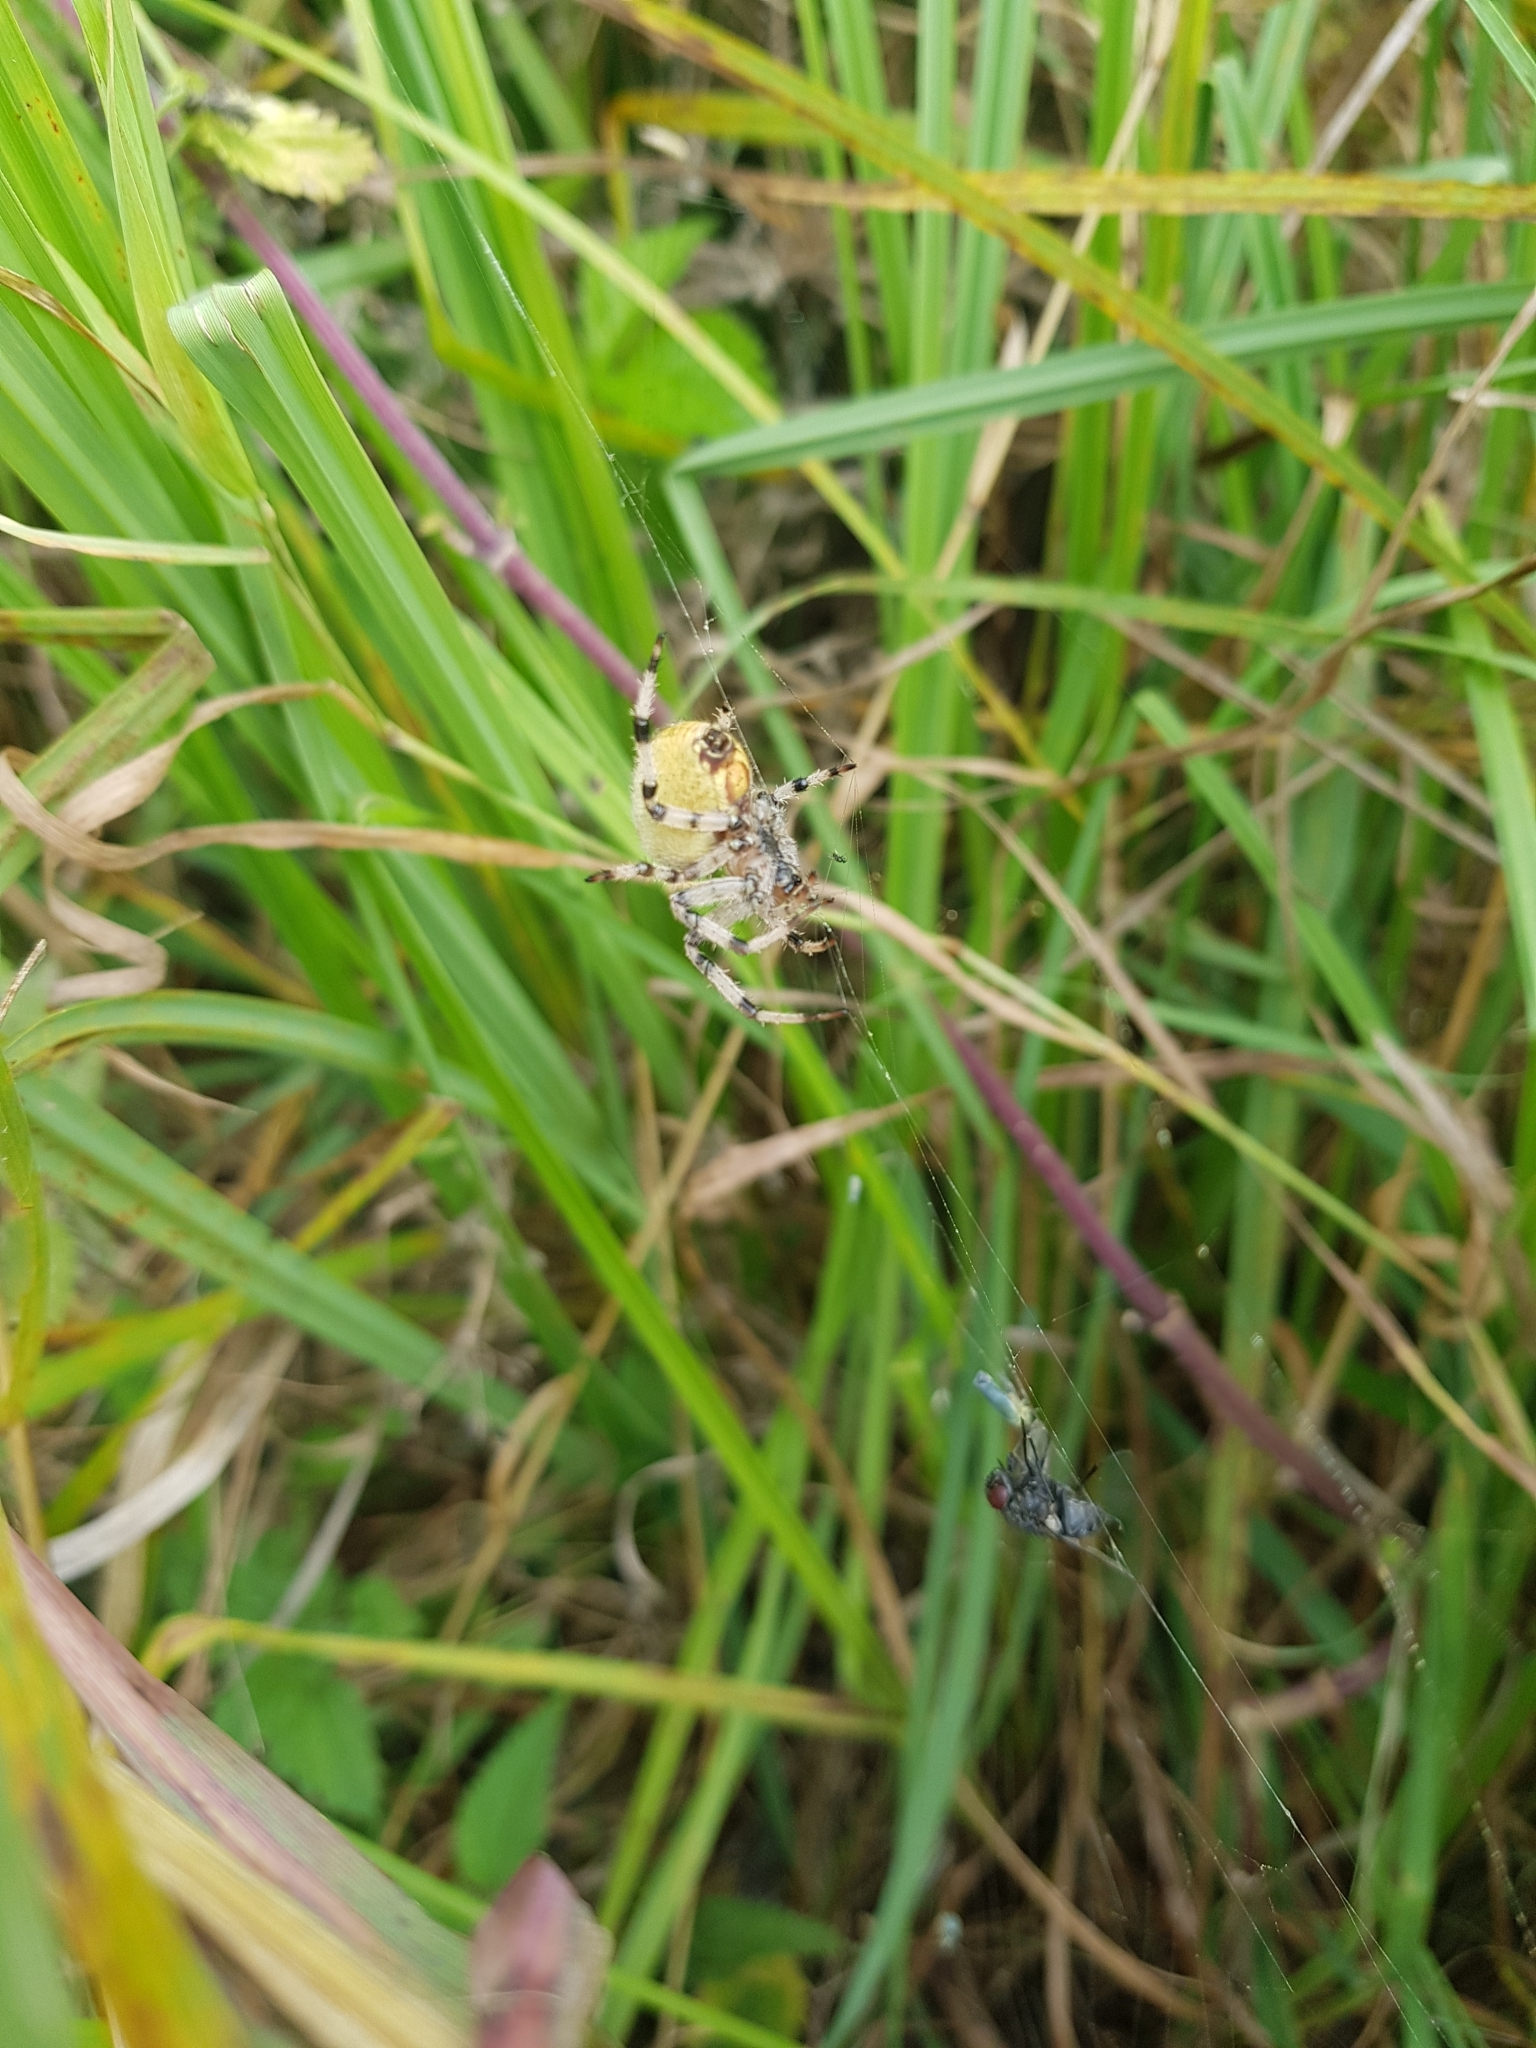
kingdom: Animalia
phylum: Arthropoda
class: Arachnida
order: Araneae
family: Araneidae
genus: Araneus
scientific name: Araneus quadratus
